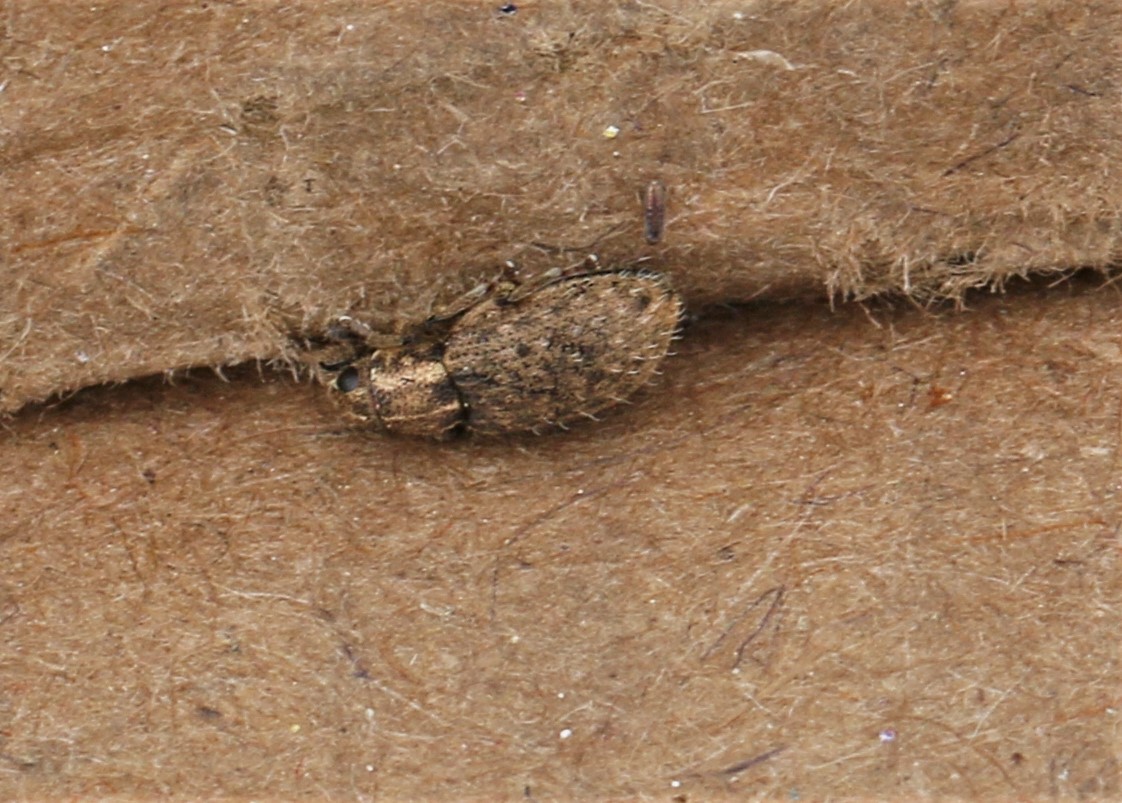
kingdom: Animalia
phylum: Arthropoda
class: Insecta
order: Coleoptera
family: Curculionidae
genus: Sitona
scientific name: Sitona hispidulus
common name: Clover weevil
